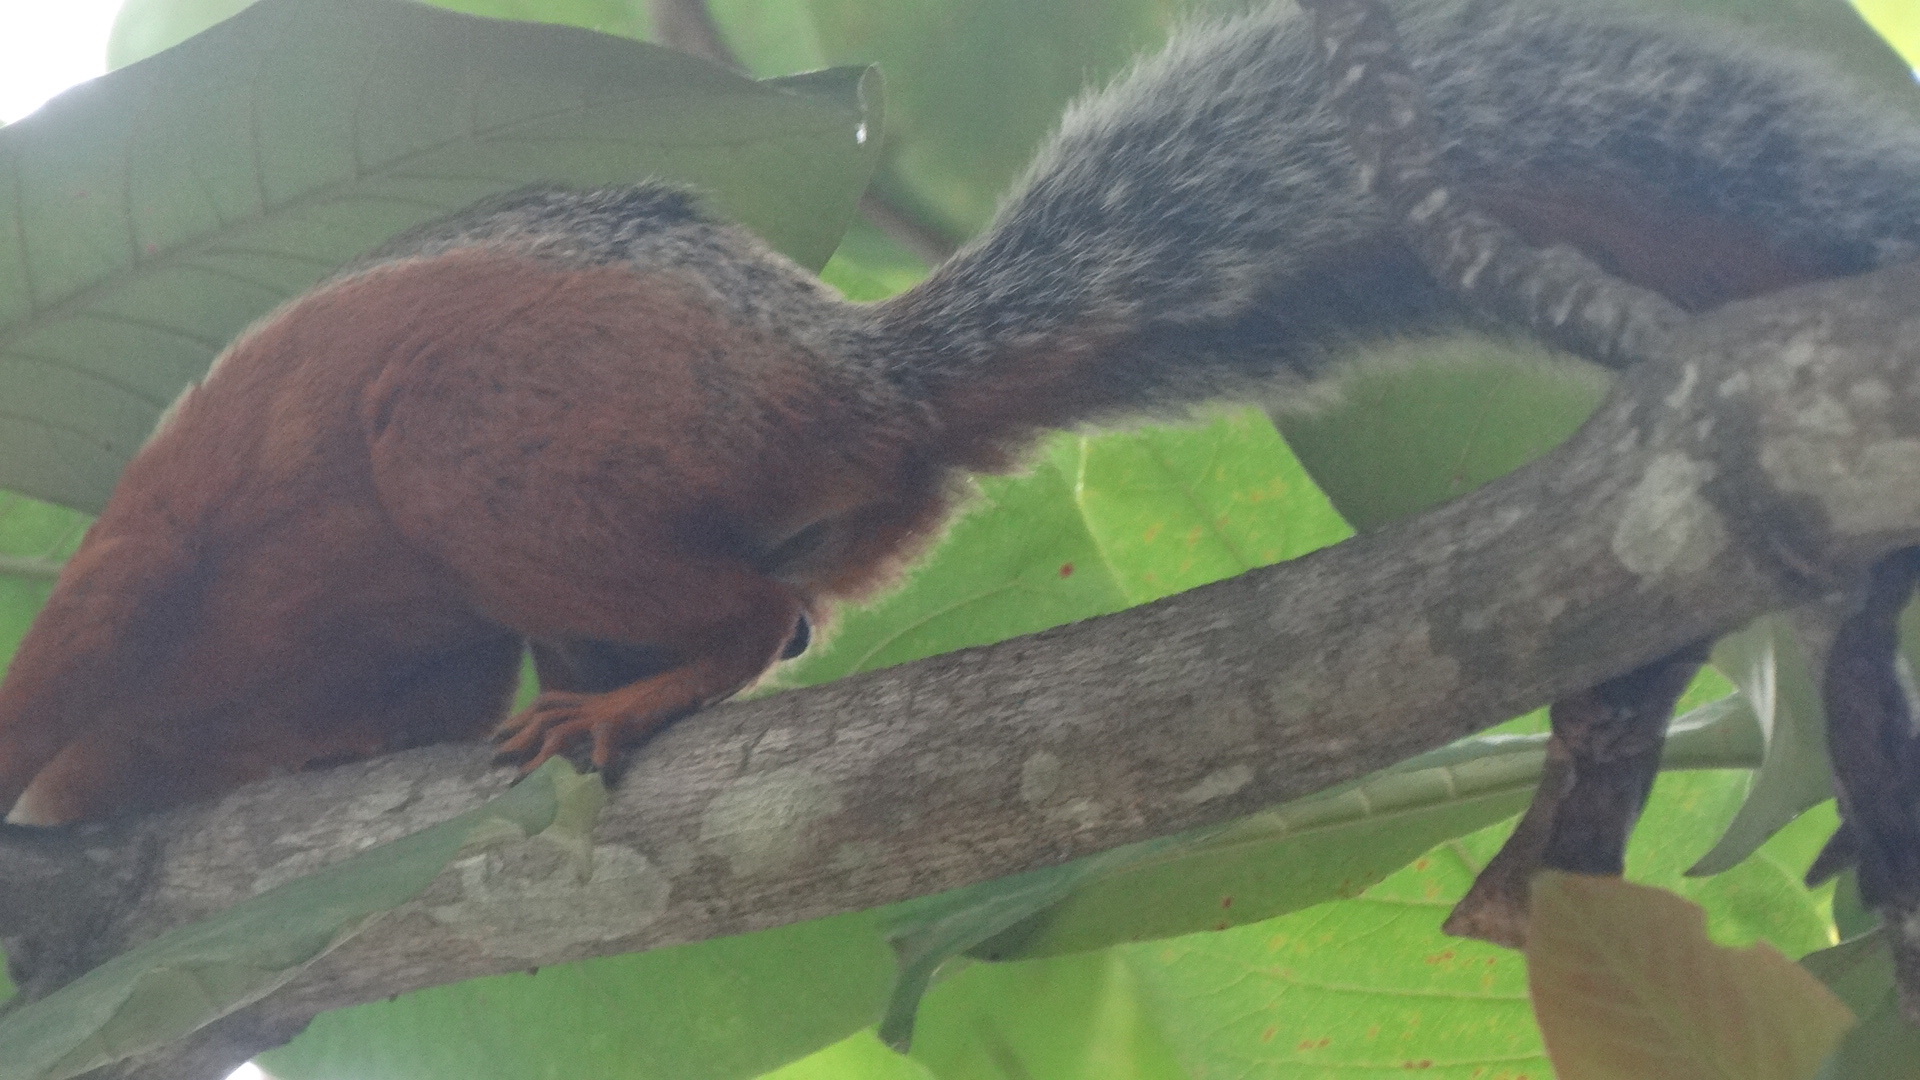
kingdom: Animalia
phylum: Chordata
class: Mammalia
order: Rodentia
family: Sciuridae
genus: Sciurus
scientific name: Sciurus variegatoides
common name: Variegated squirrel
